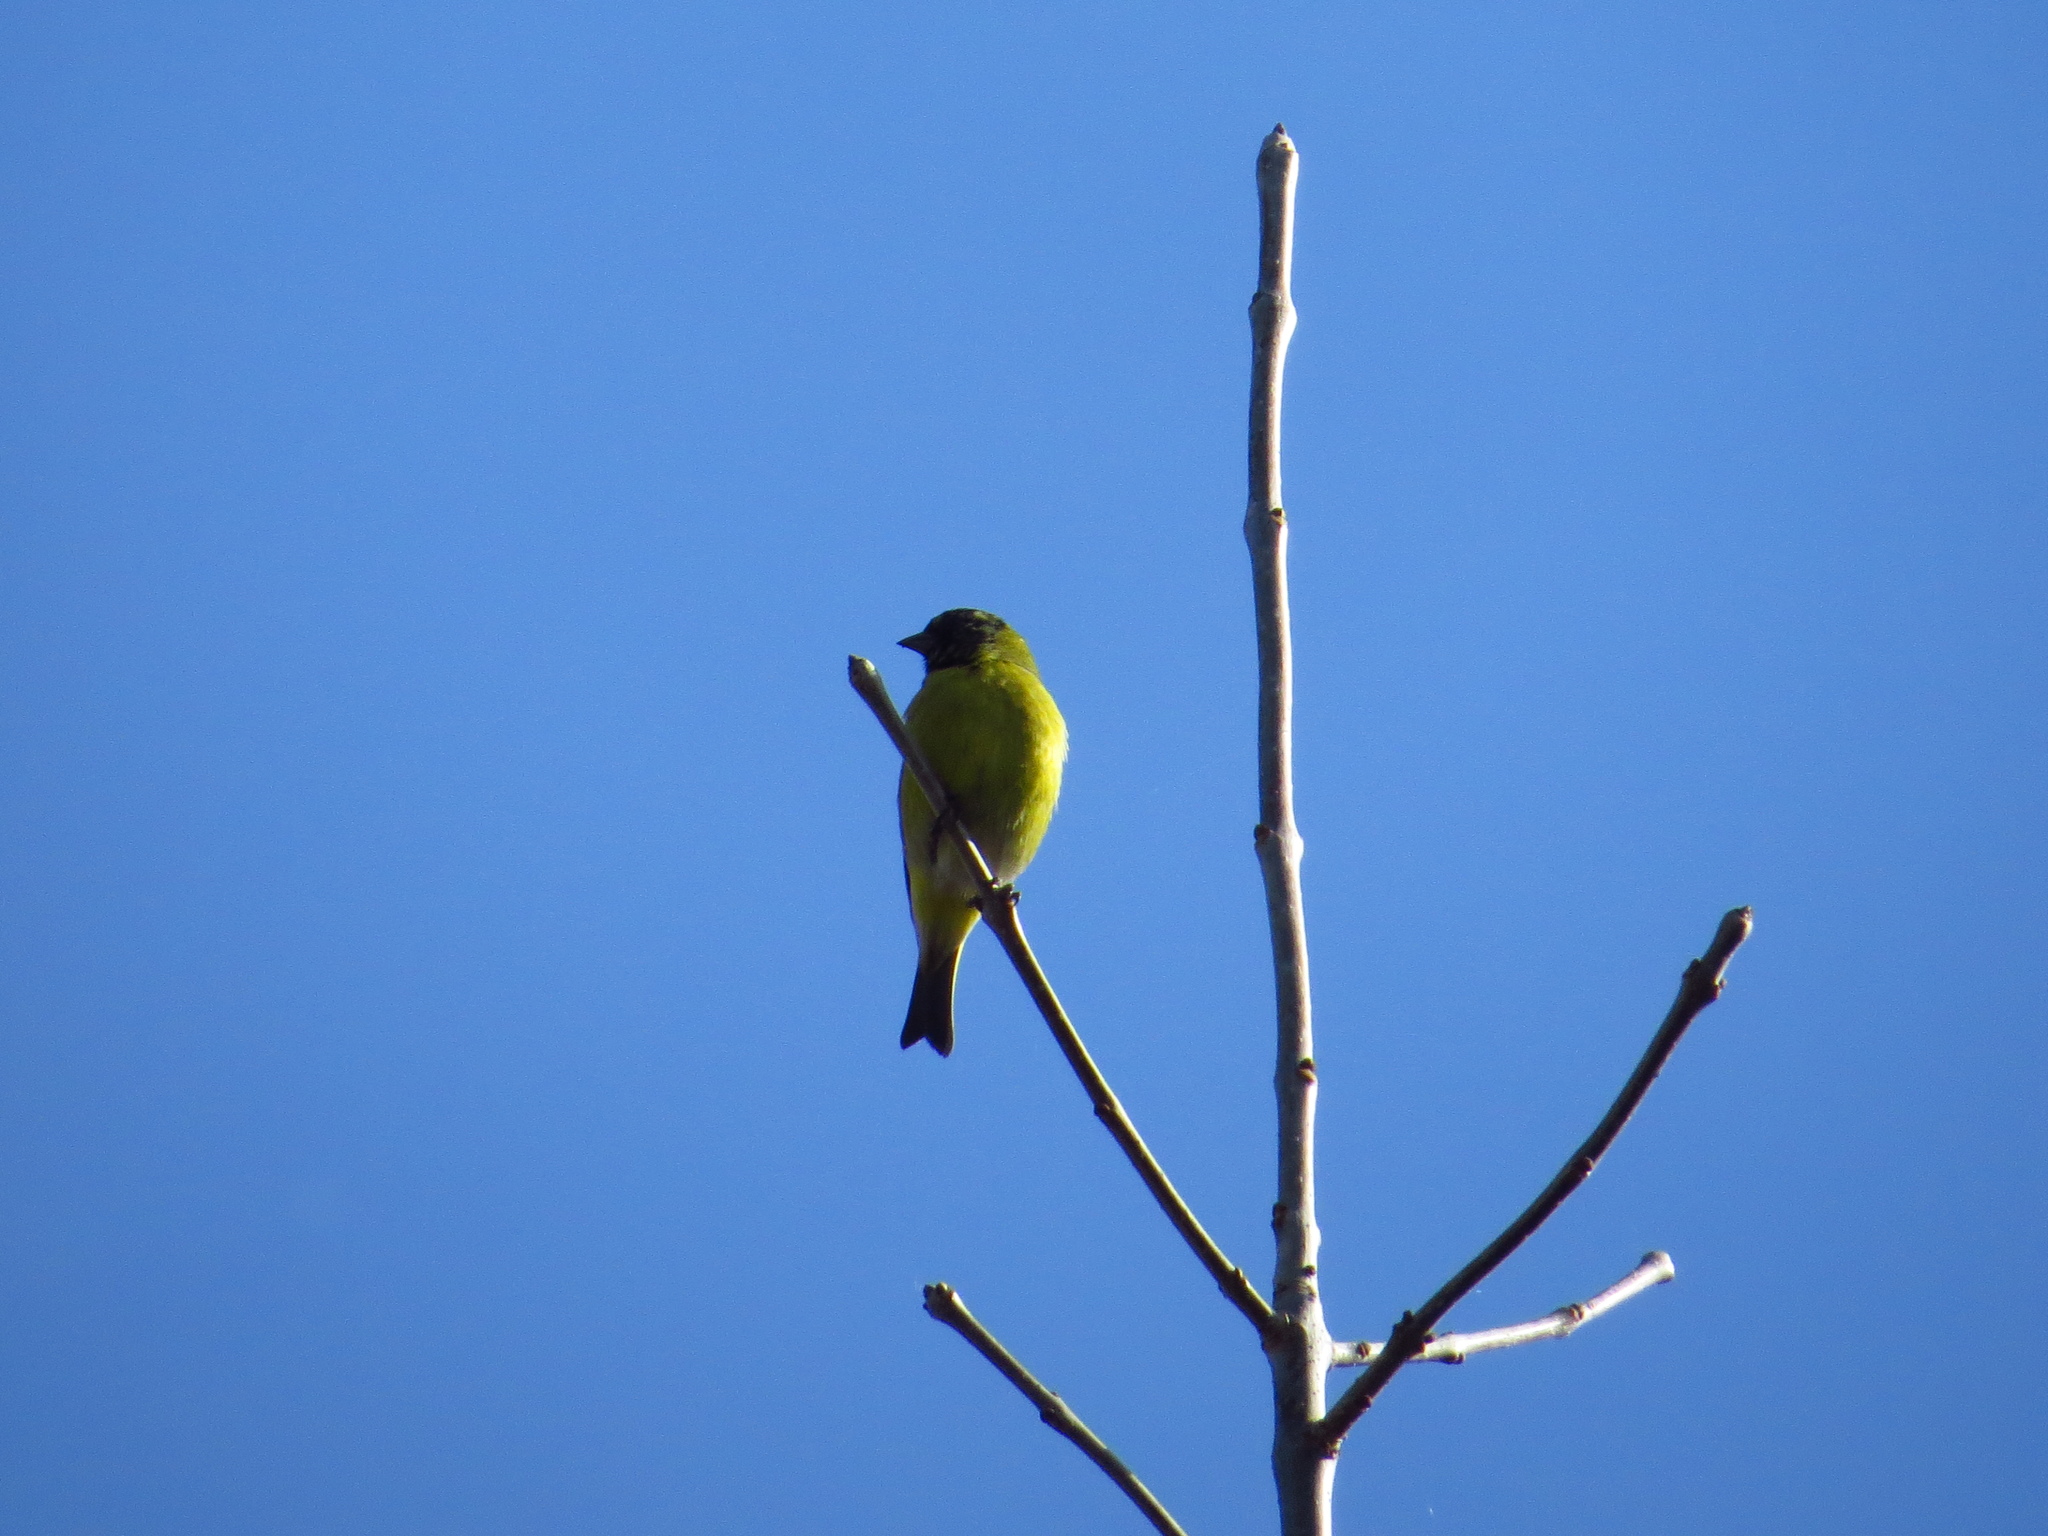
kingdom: Animalia
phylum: Chordata
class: Aves
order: Passeriformes
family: Fringillidae
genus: Spinus
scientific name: Spinus magellanicus
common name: Hooded siskin
